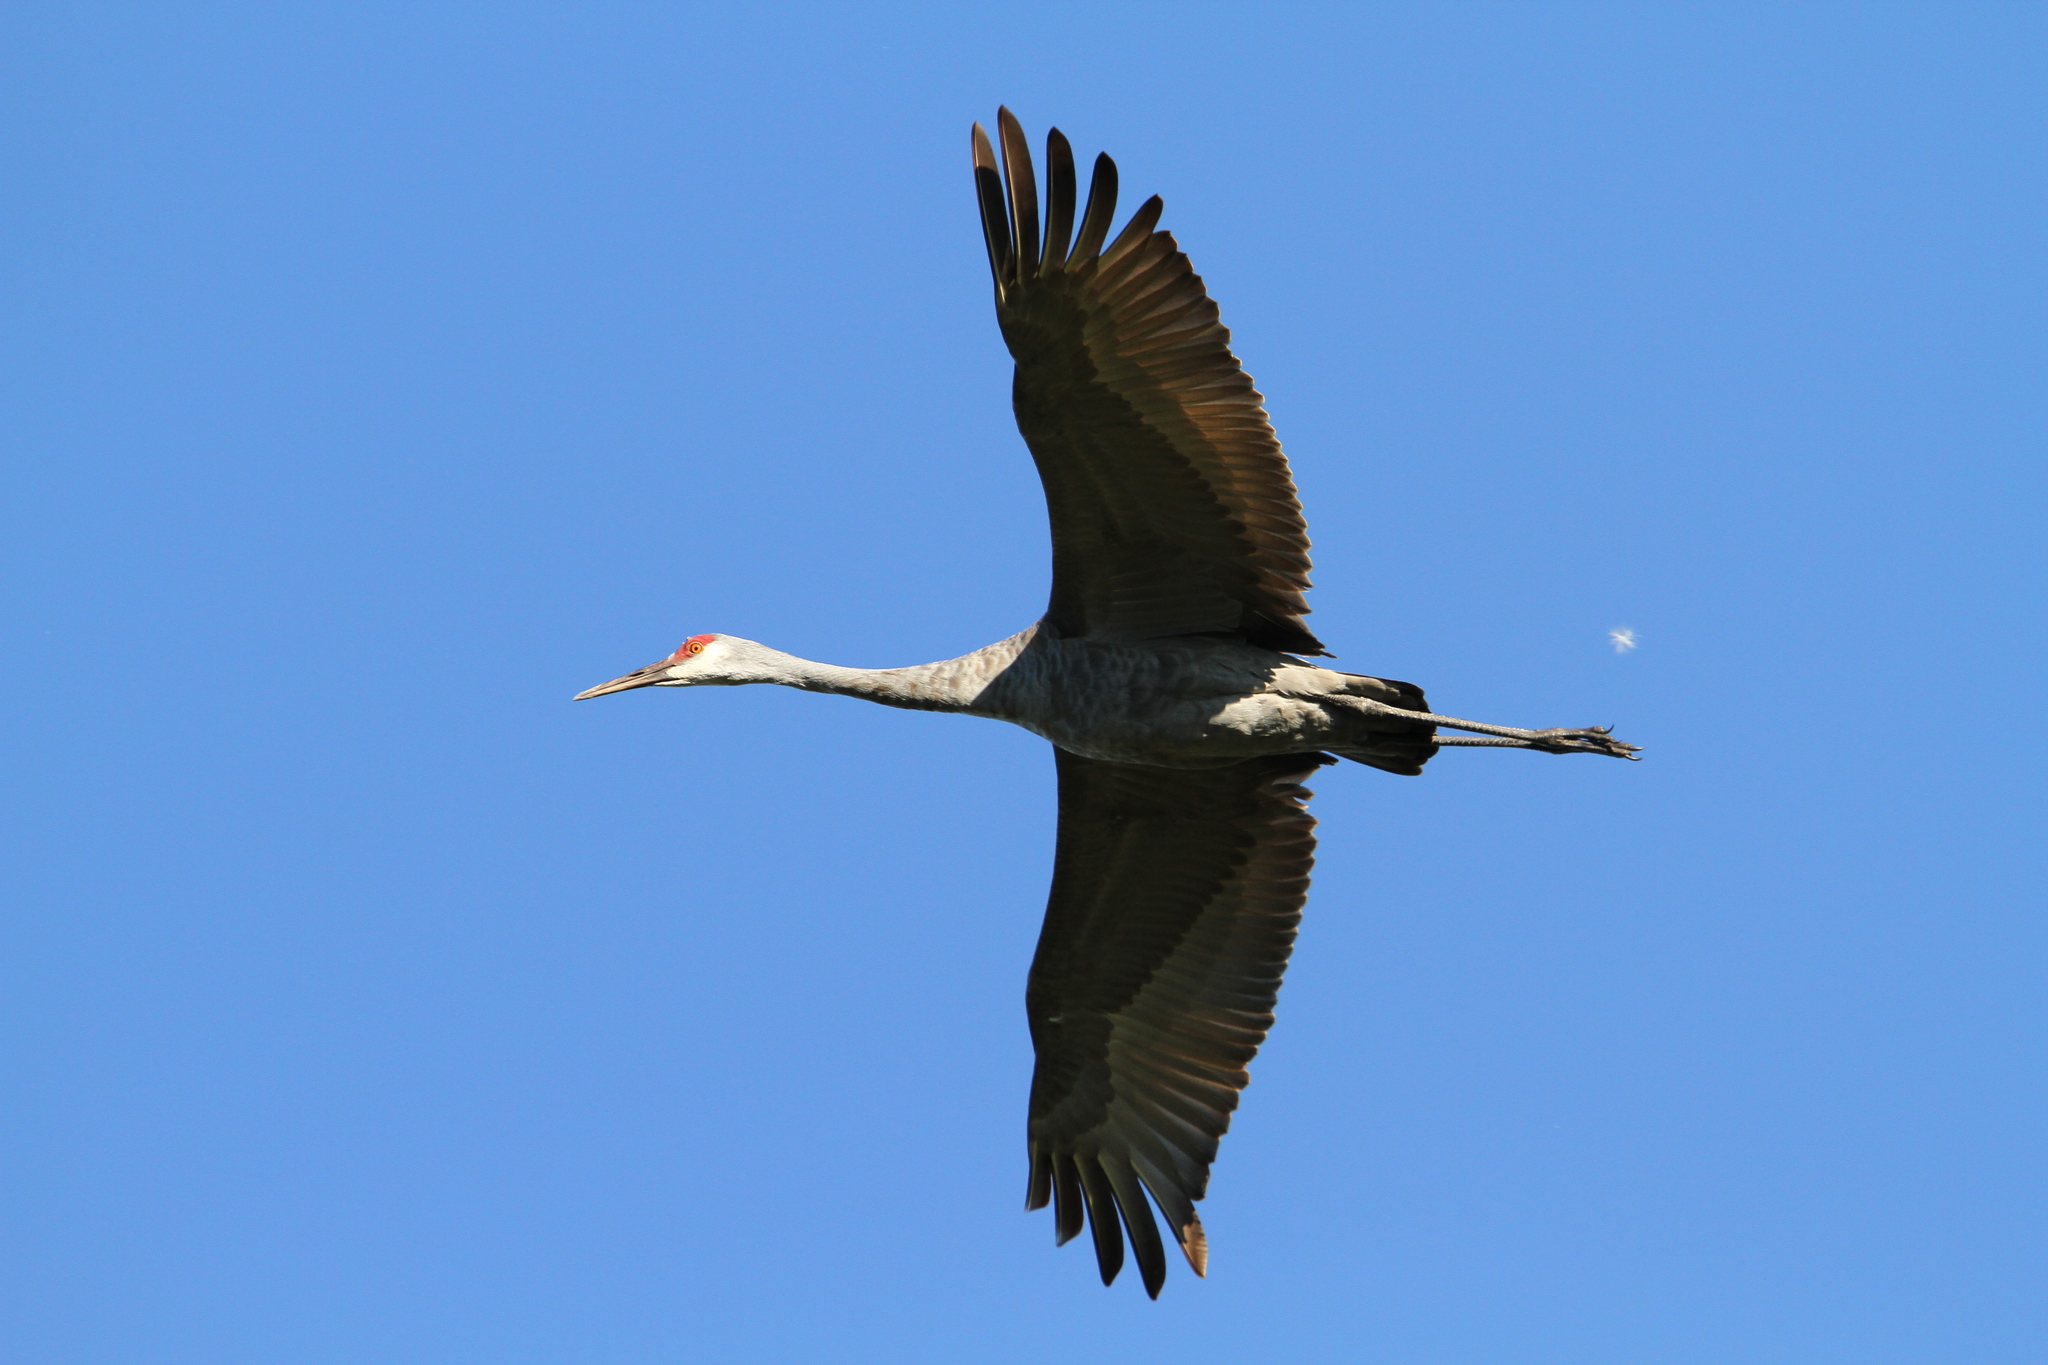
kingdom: Animalia
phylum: Chordata
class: Aves
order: Gruiformes
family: Gruidae
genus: Grus
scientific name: Grus canadensis
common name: Sandhill crane
